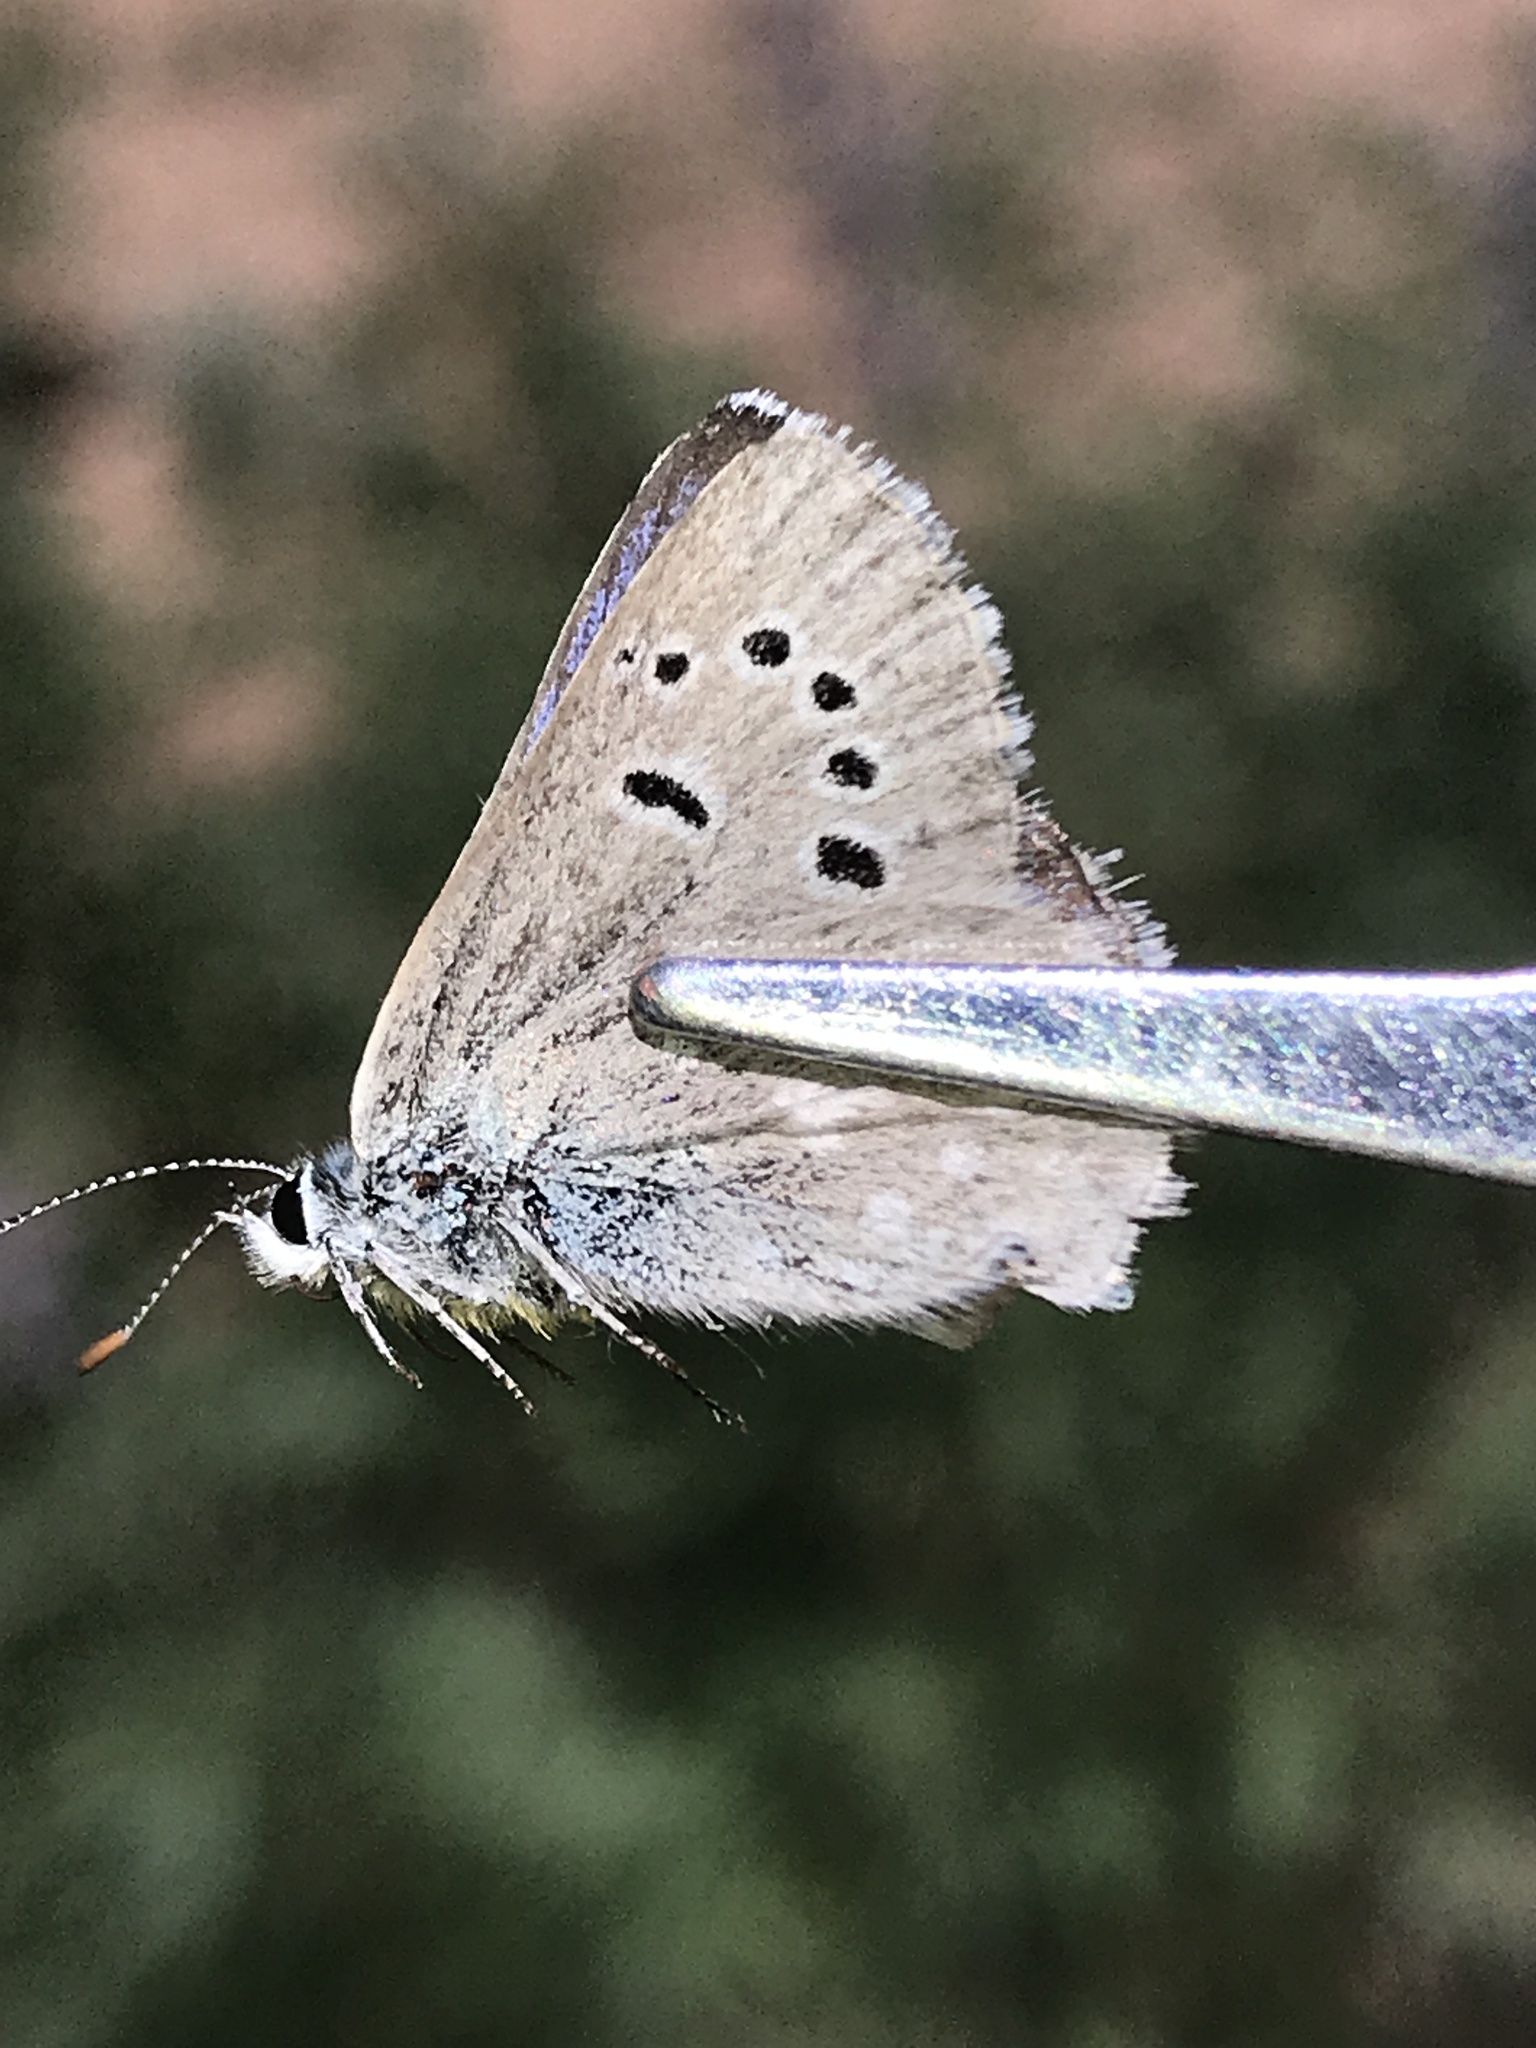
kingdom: Animalia
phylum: Arthropoda
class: Insecta
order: Lepidoptera
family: Lycaenidae
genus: Icaricia
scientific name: Icaricia icarioides
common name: Boisduval's blue
